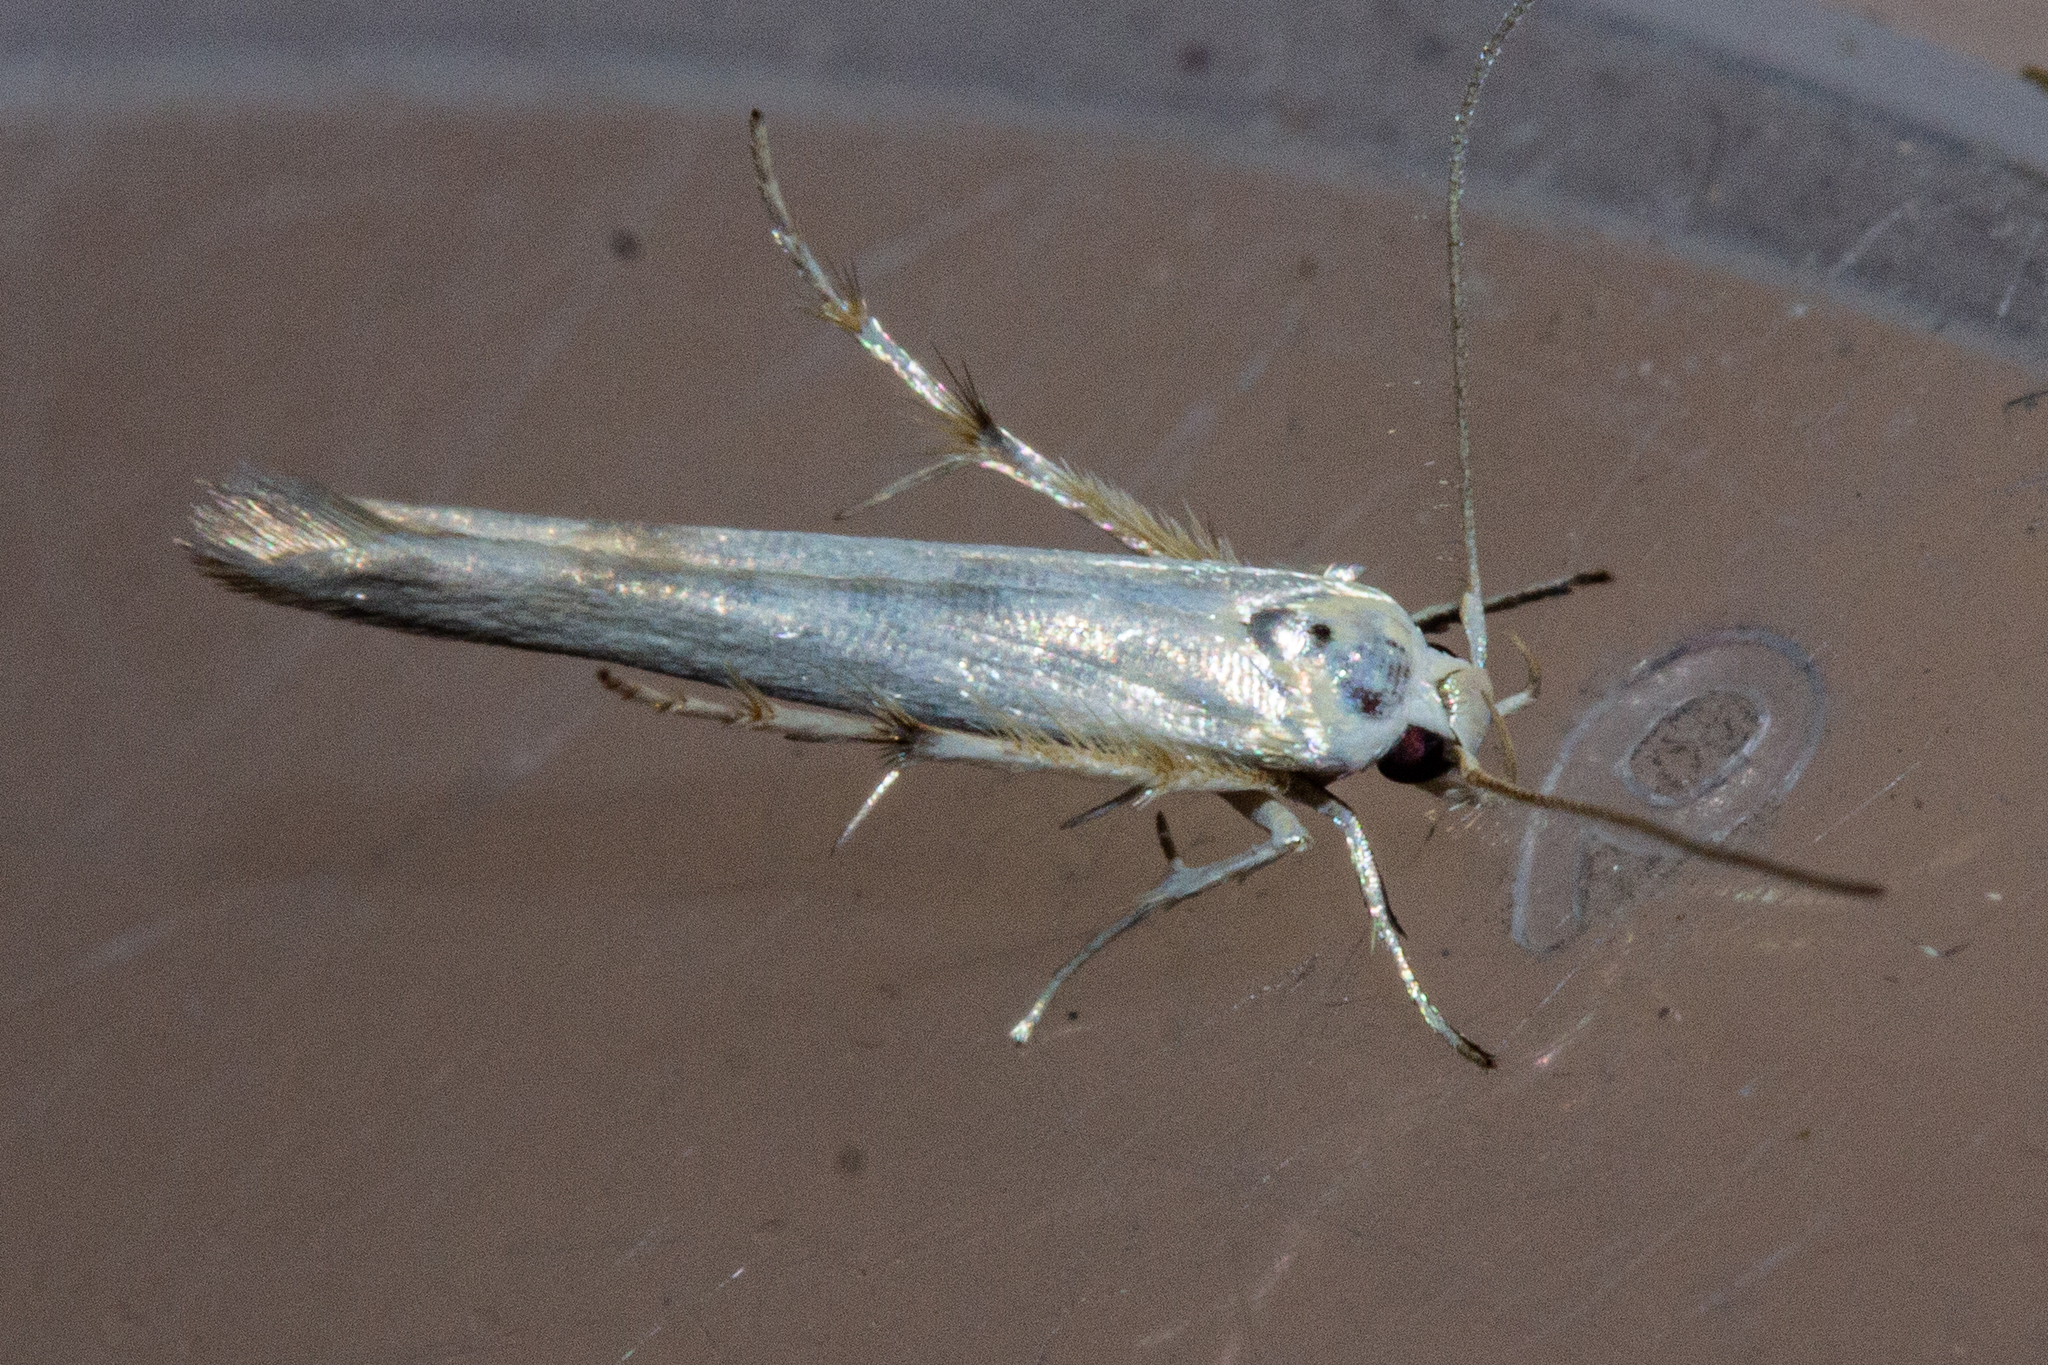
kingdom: Animalia
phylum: Arthropoda
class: Insecta
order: Lepidoptera
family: Stathmopodidae
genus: Stathmopoda
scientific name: Stathmopoda horticola
